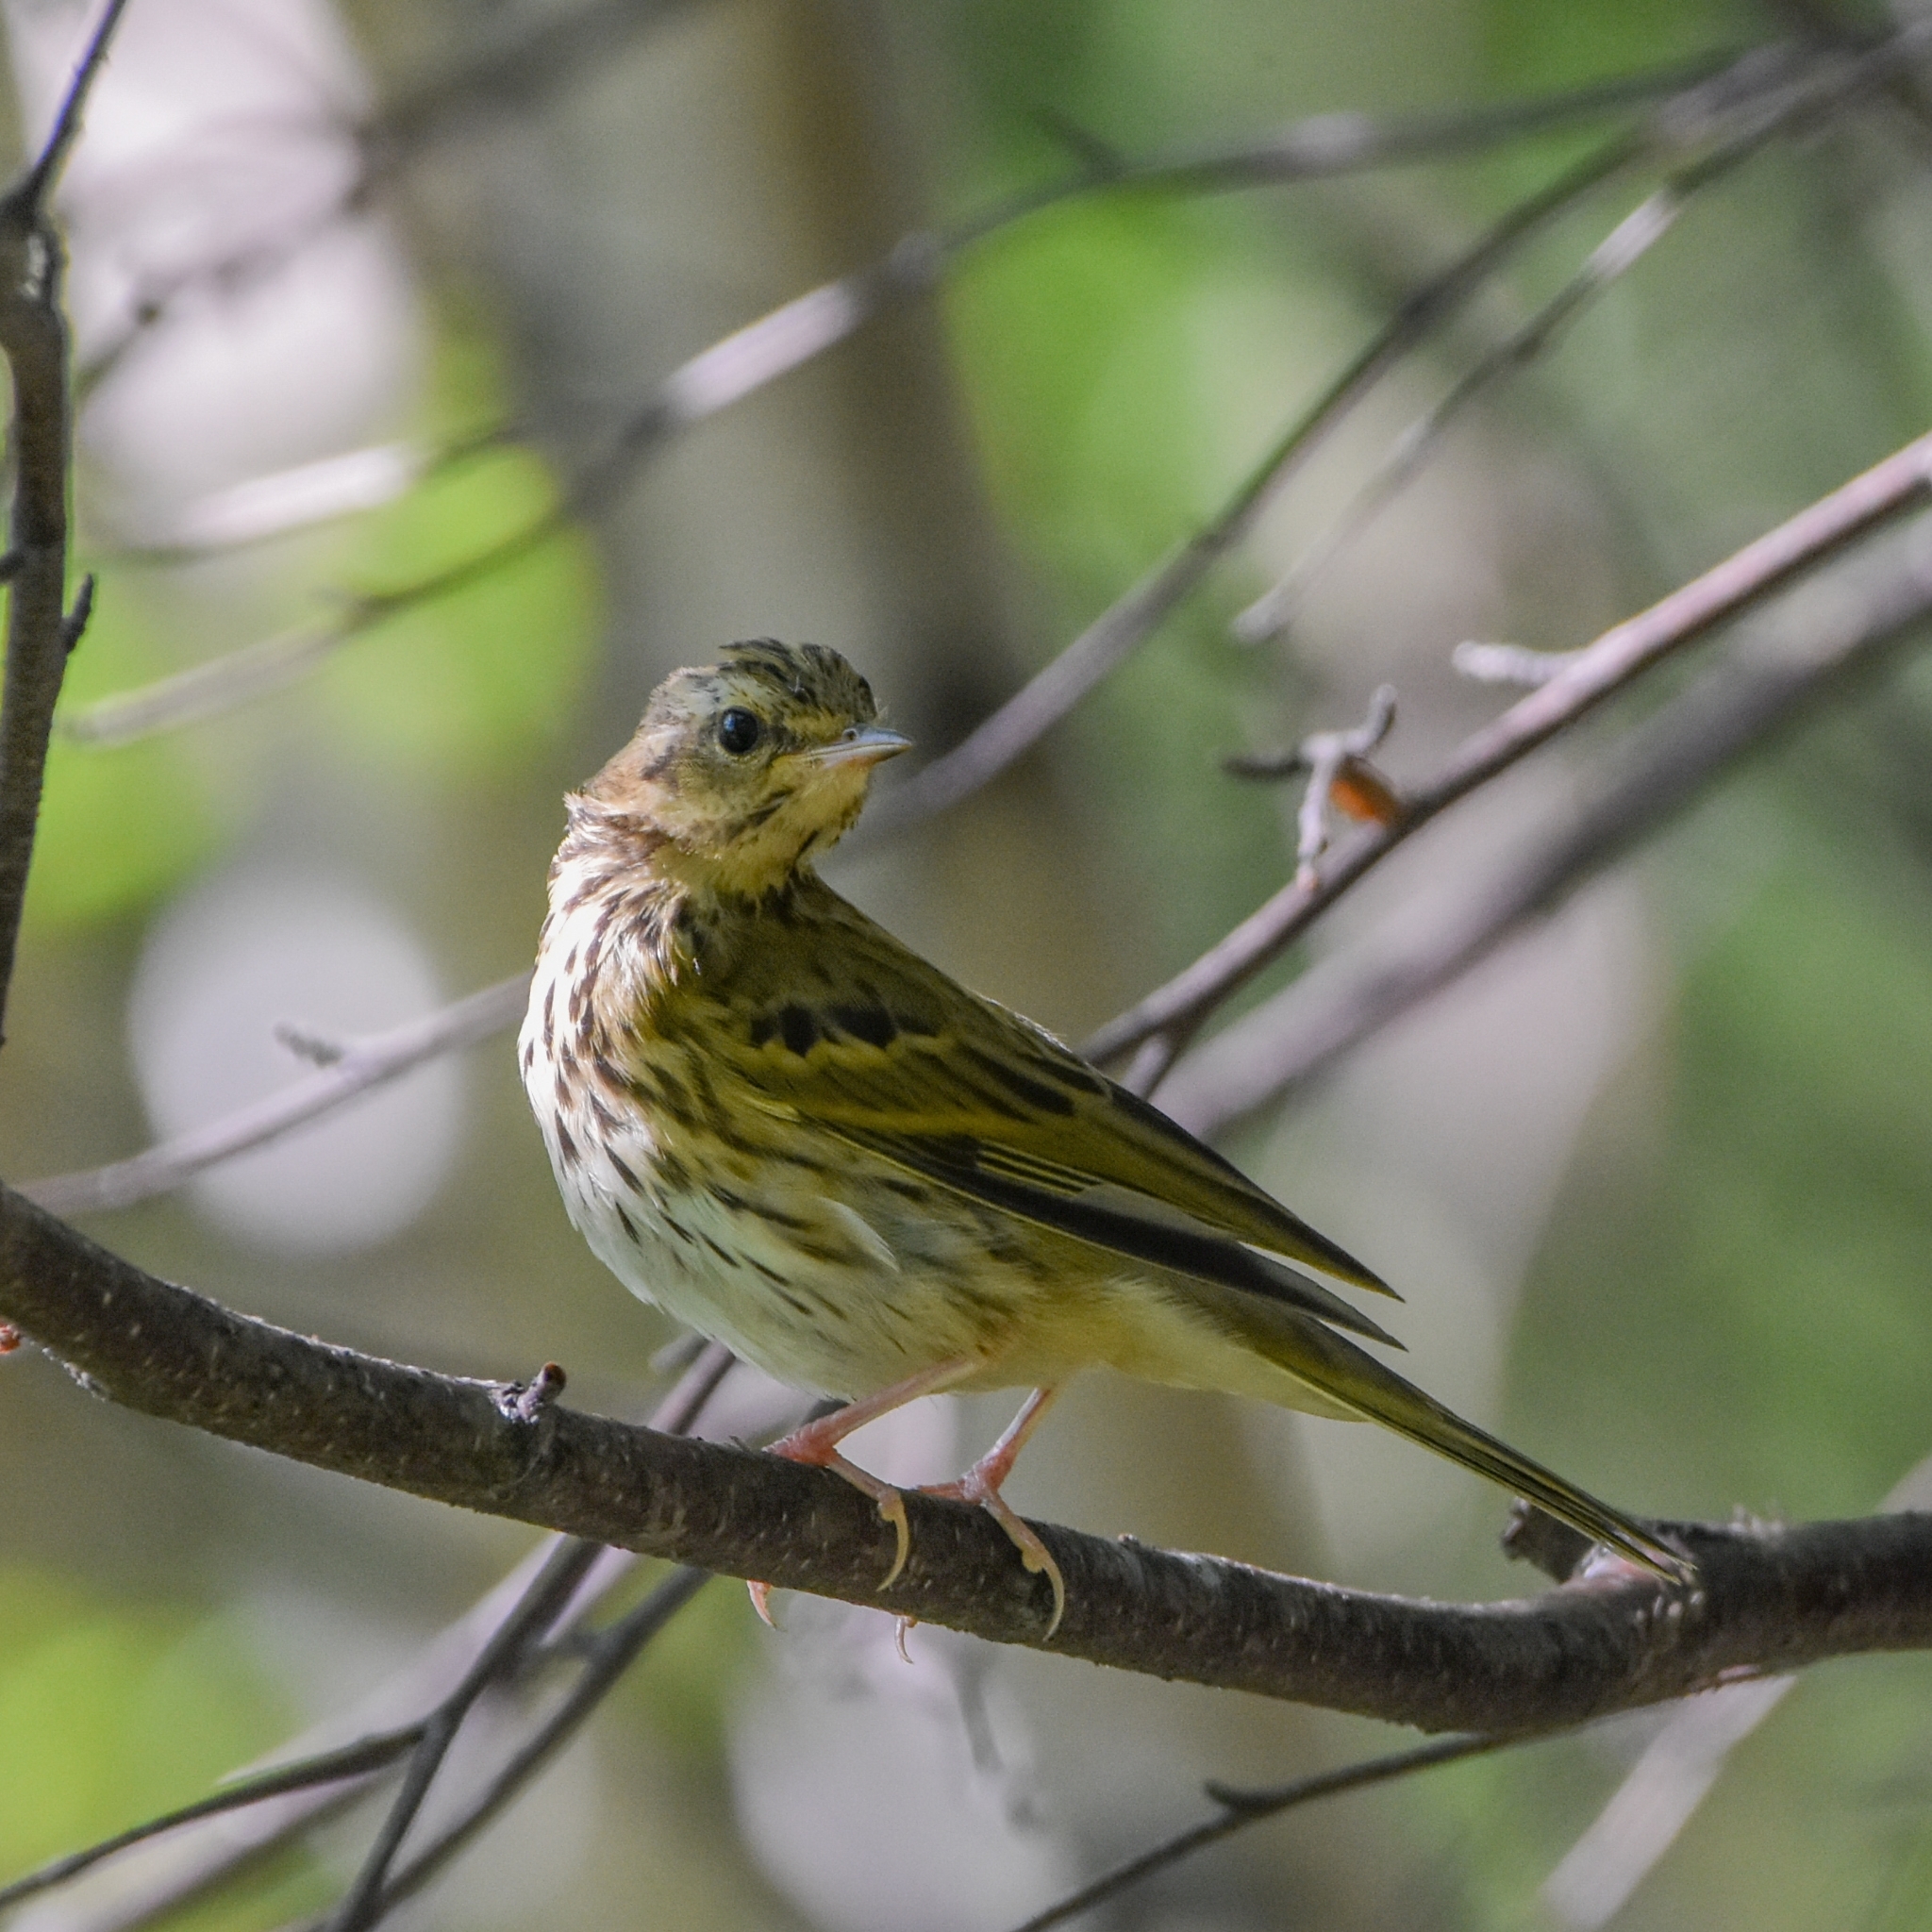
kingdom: Animalia
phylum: Chordata
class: Aves
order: Passeriformes
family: Motacillidae
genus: Anthus
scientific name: Anthus hodgsoni
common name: Olive-backed pipit
